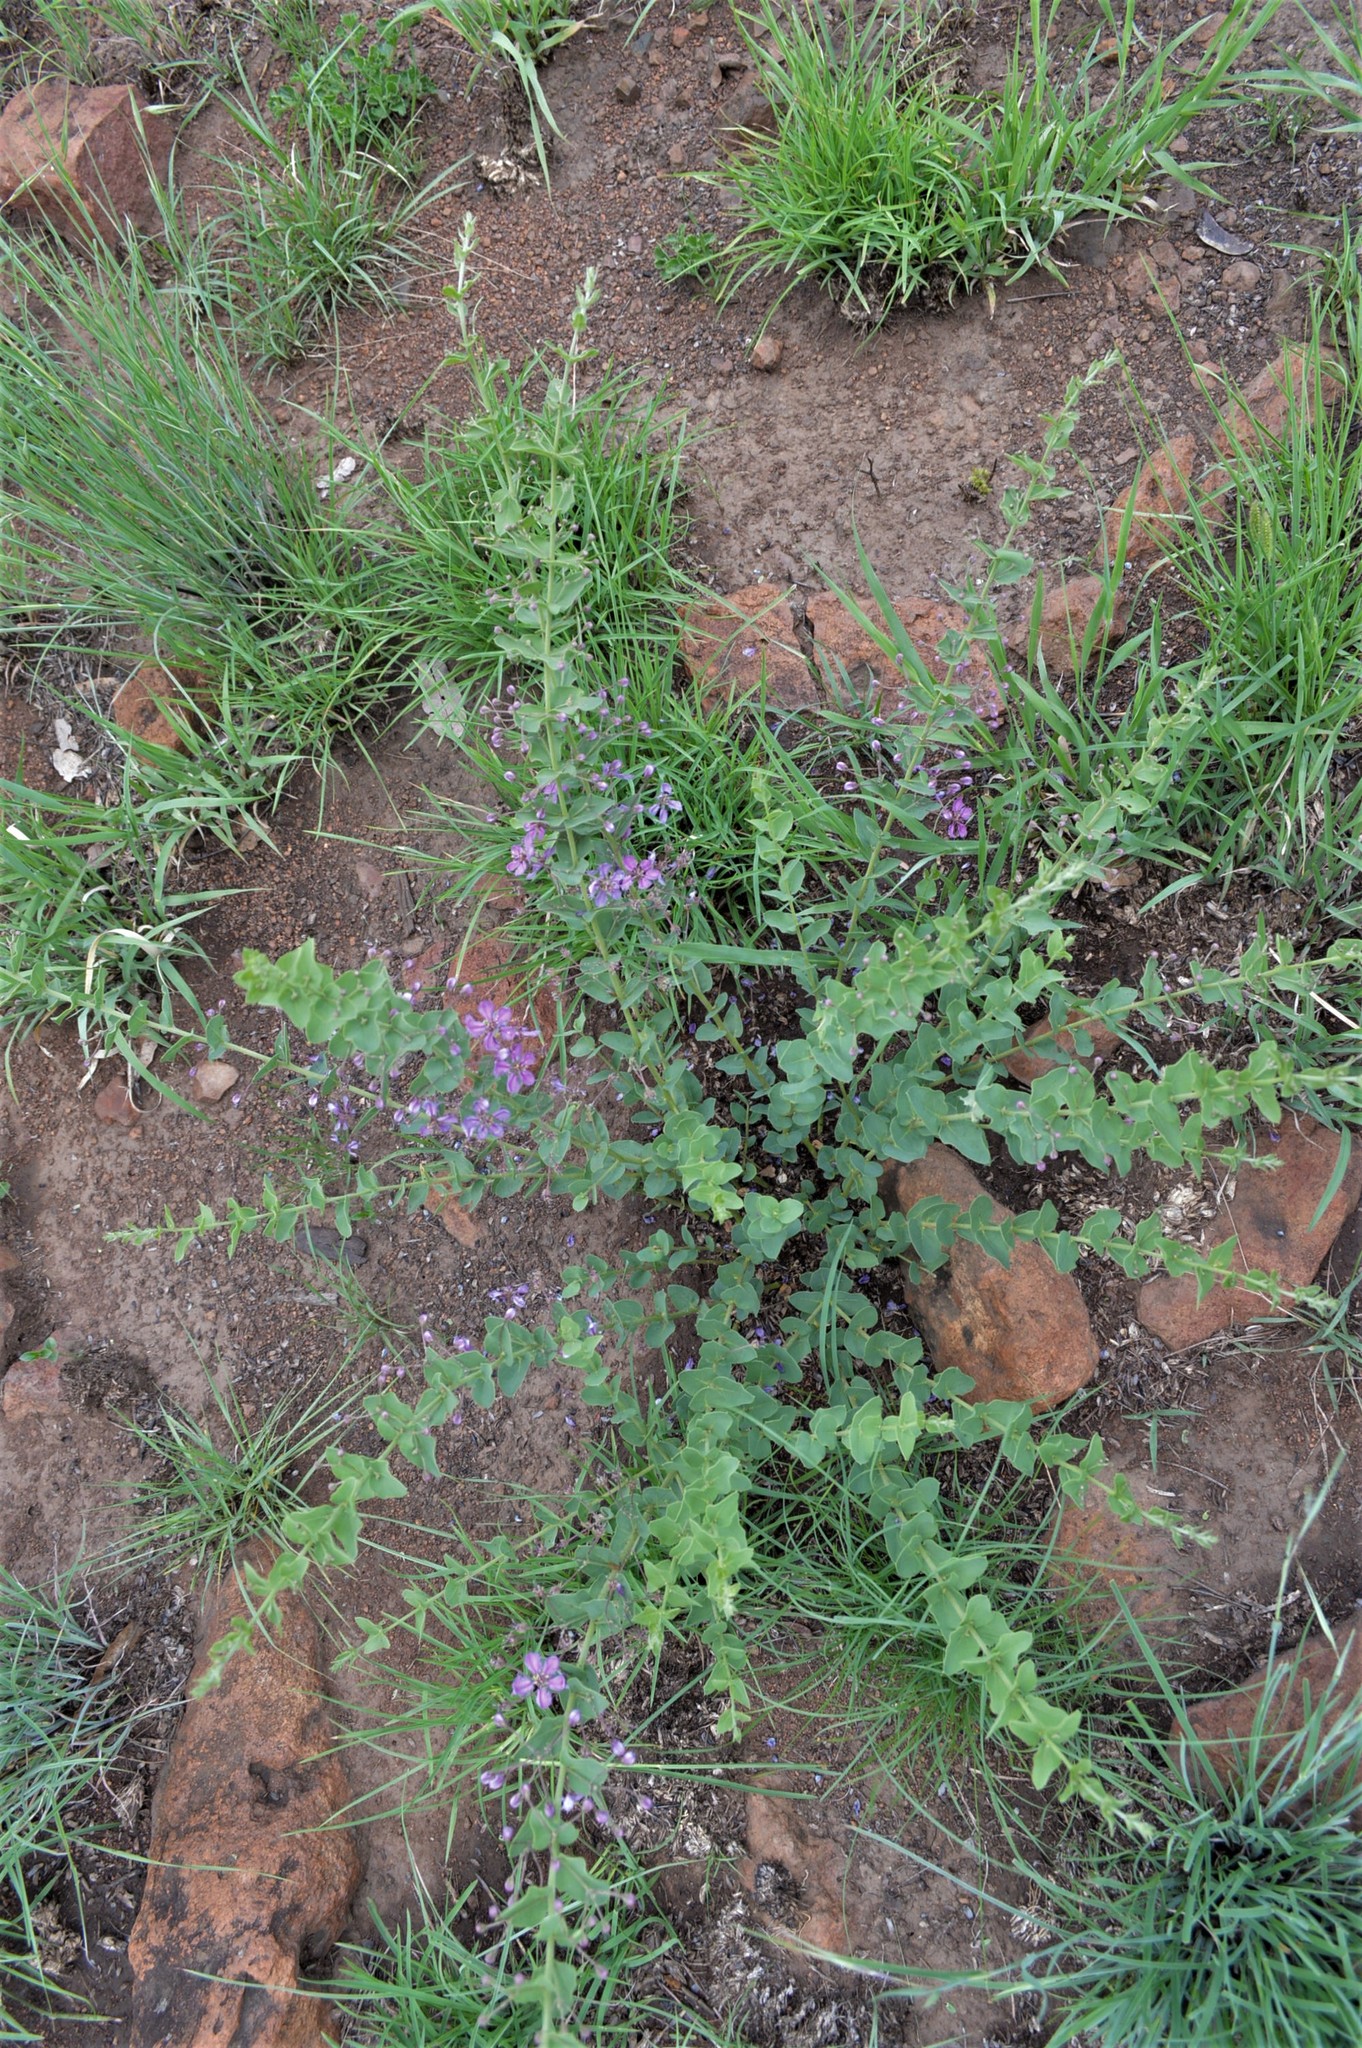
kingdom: Plantae
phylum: Tracheophyta
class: Magnoliopsida
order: Malpighiales
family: Malpighiaceae
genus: Triaspis
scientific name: Triaspis hypericoides
